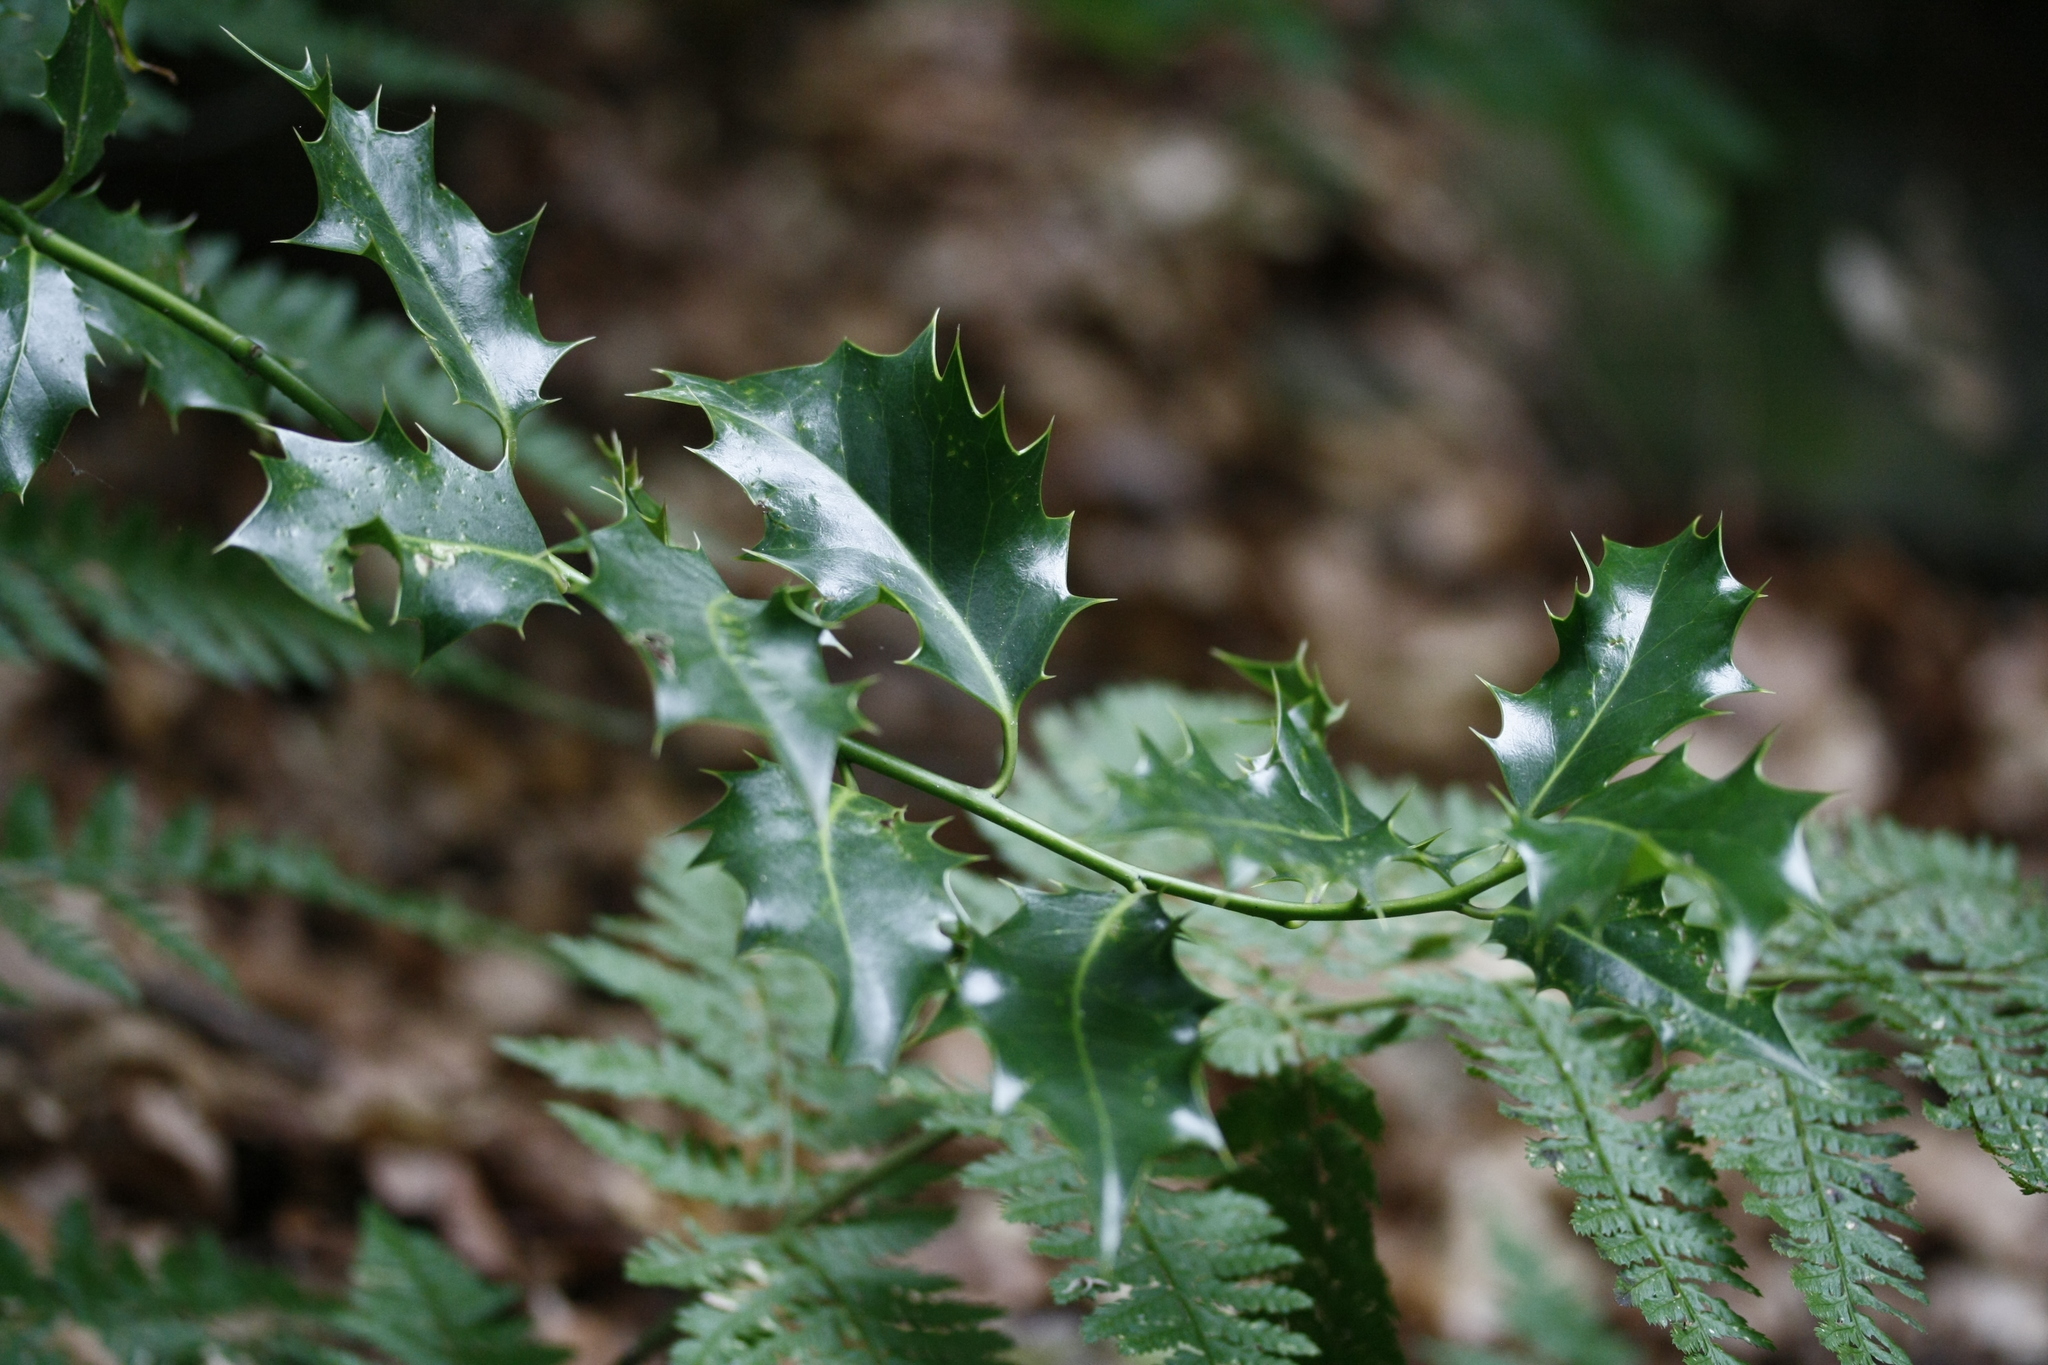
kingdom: Plantae
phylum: Tracheophyta
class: Magnoliopsida
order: Aquifoliales
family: Aquifoliaceae
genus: Ilex
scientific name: Ilex aquifolium
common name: English holly
